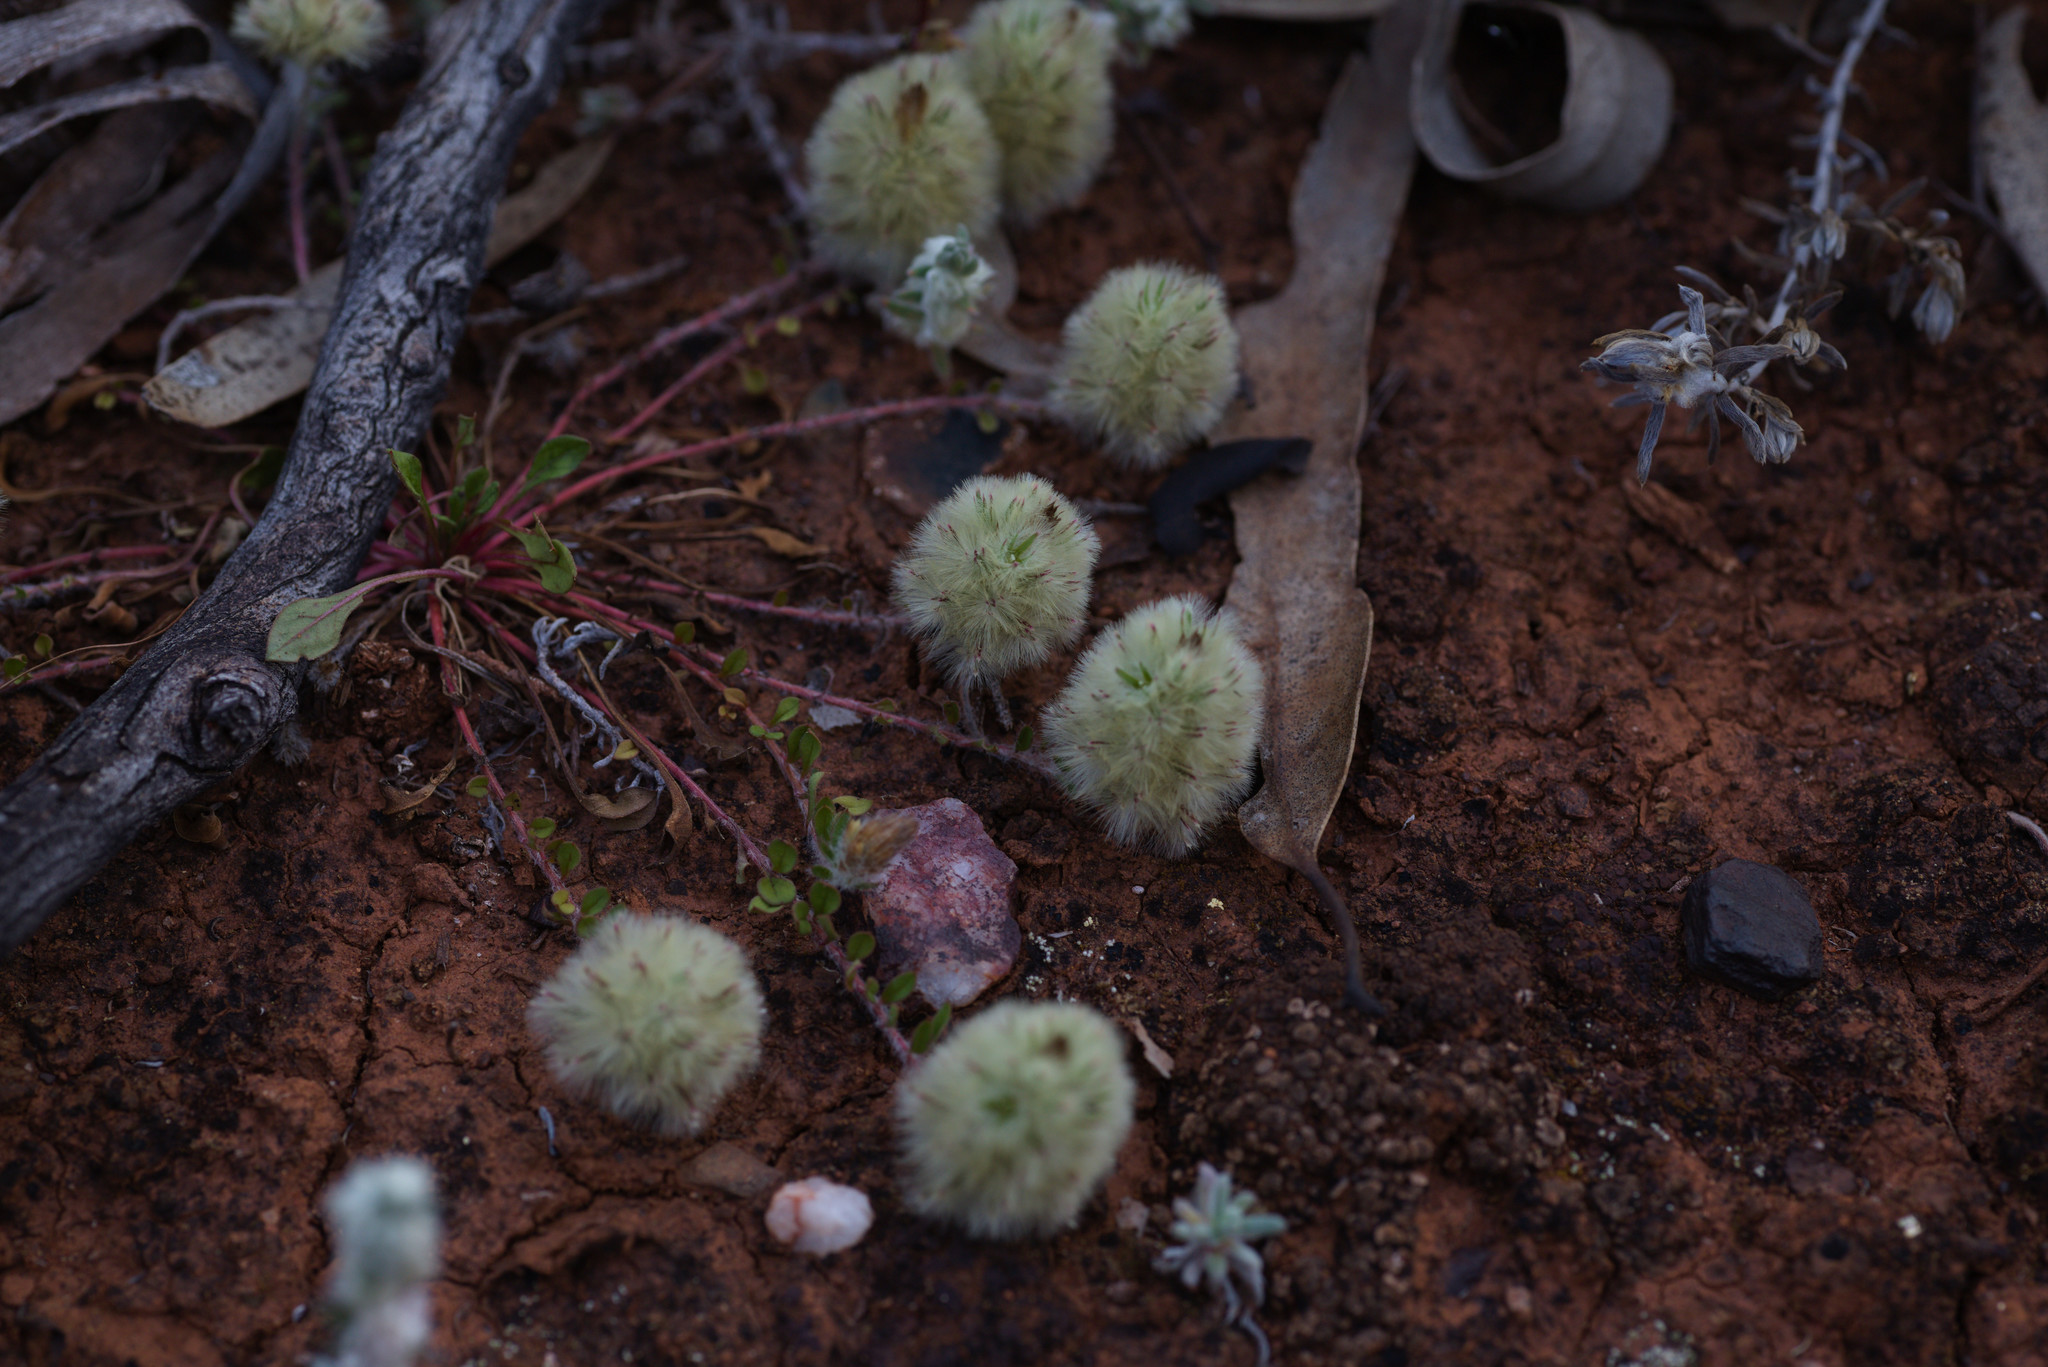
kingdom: Plantae
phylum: Tracheophyta
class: Magnoliopsida
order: Caryophyllales
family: Amaranthaceae
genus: Ptilotus
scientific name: Ptilotus spathulatus
